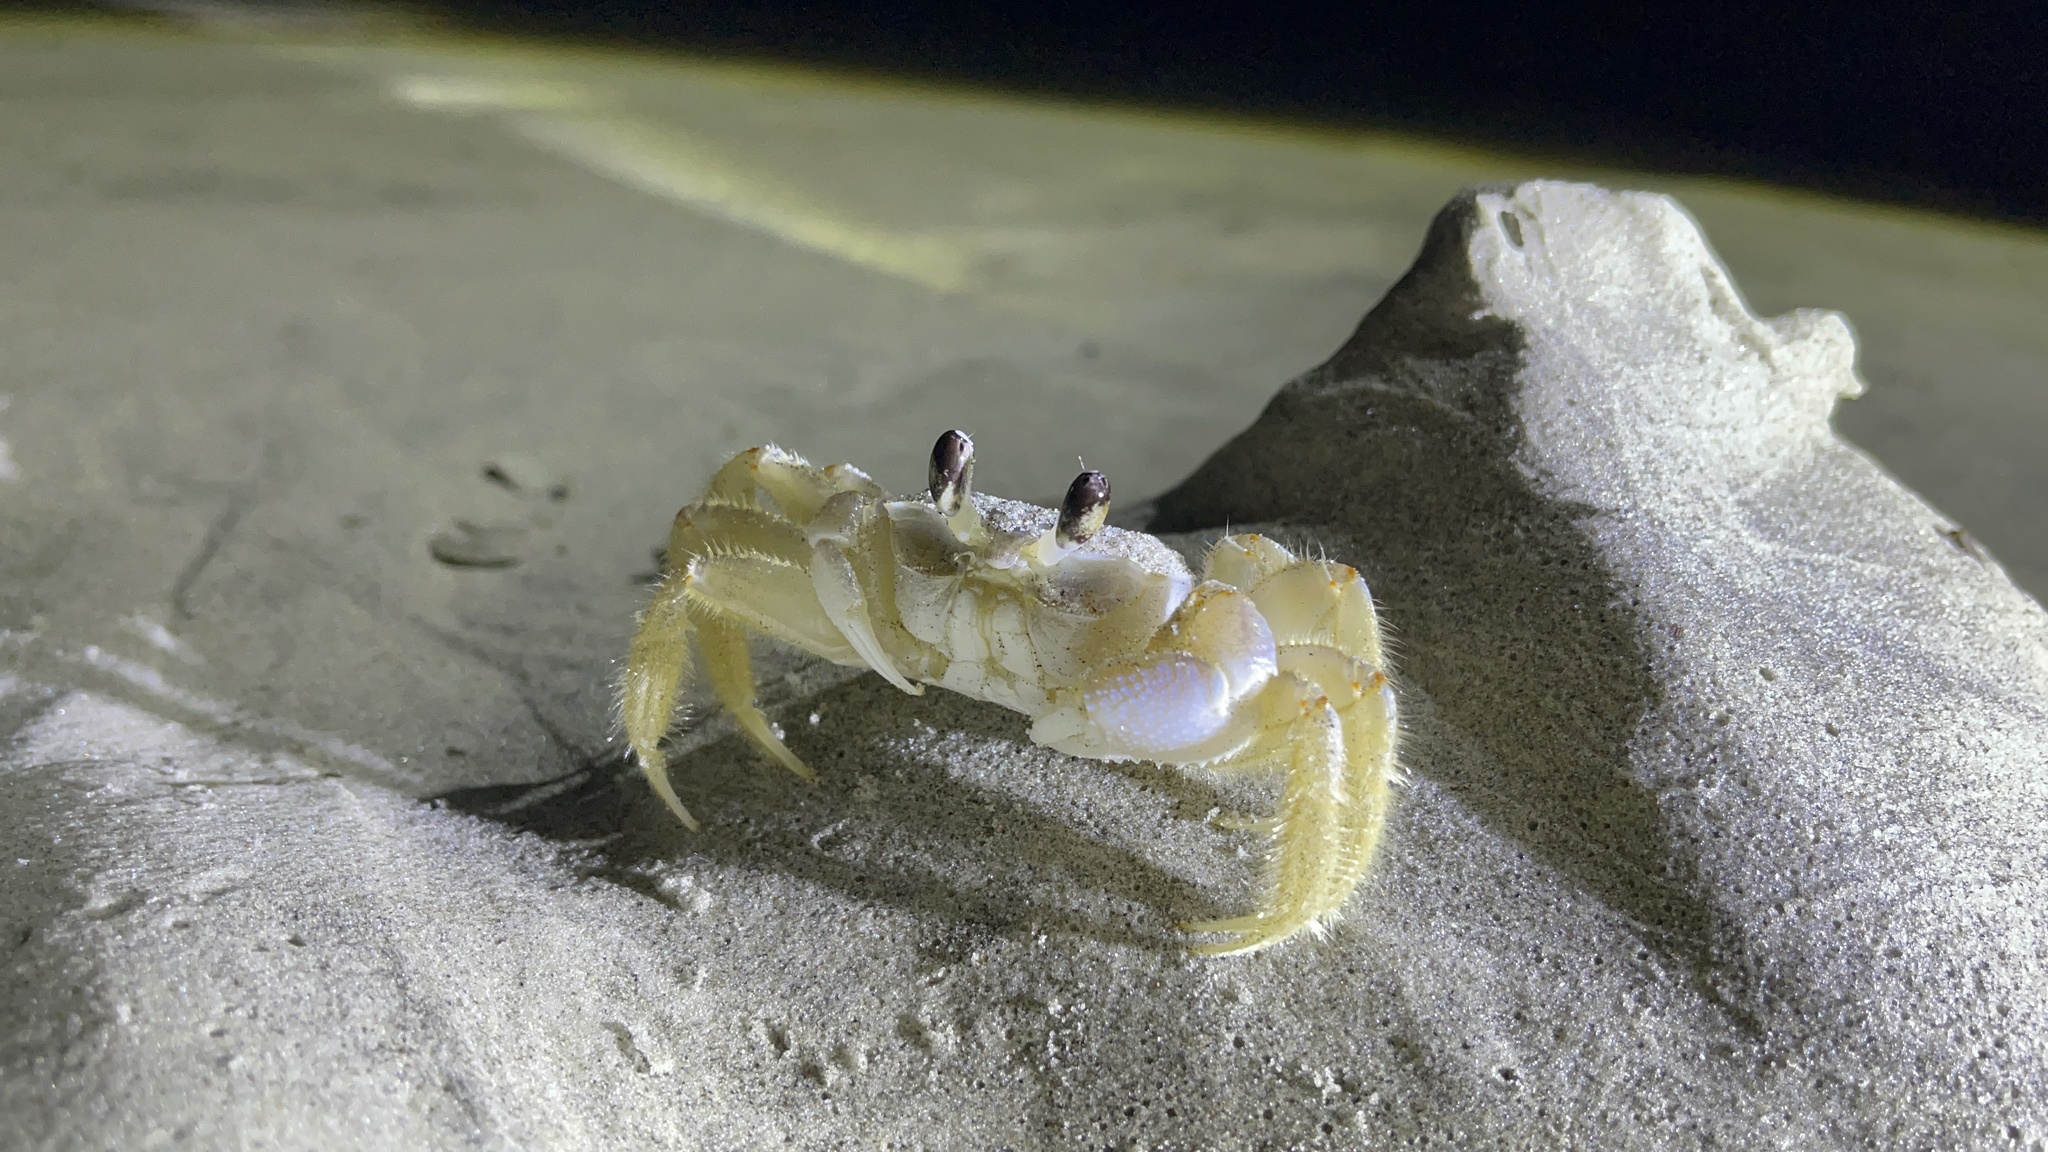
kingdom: Animalia
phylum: Arthropoda
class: Malacostraca
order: Decapoda
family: Ocypodidae
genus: Ocypode
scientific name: Ocypode quadrata
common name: Ghost crab
